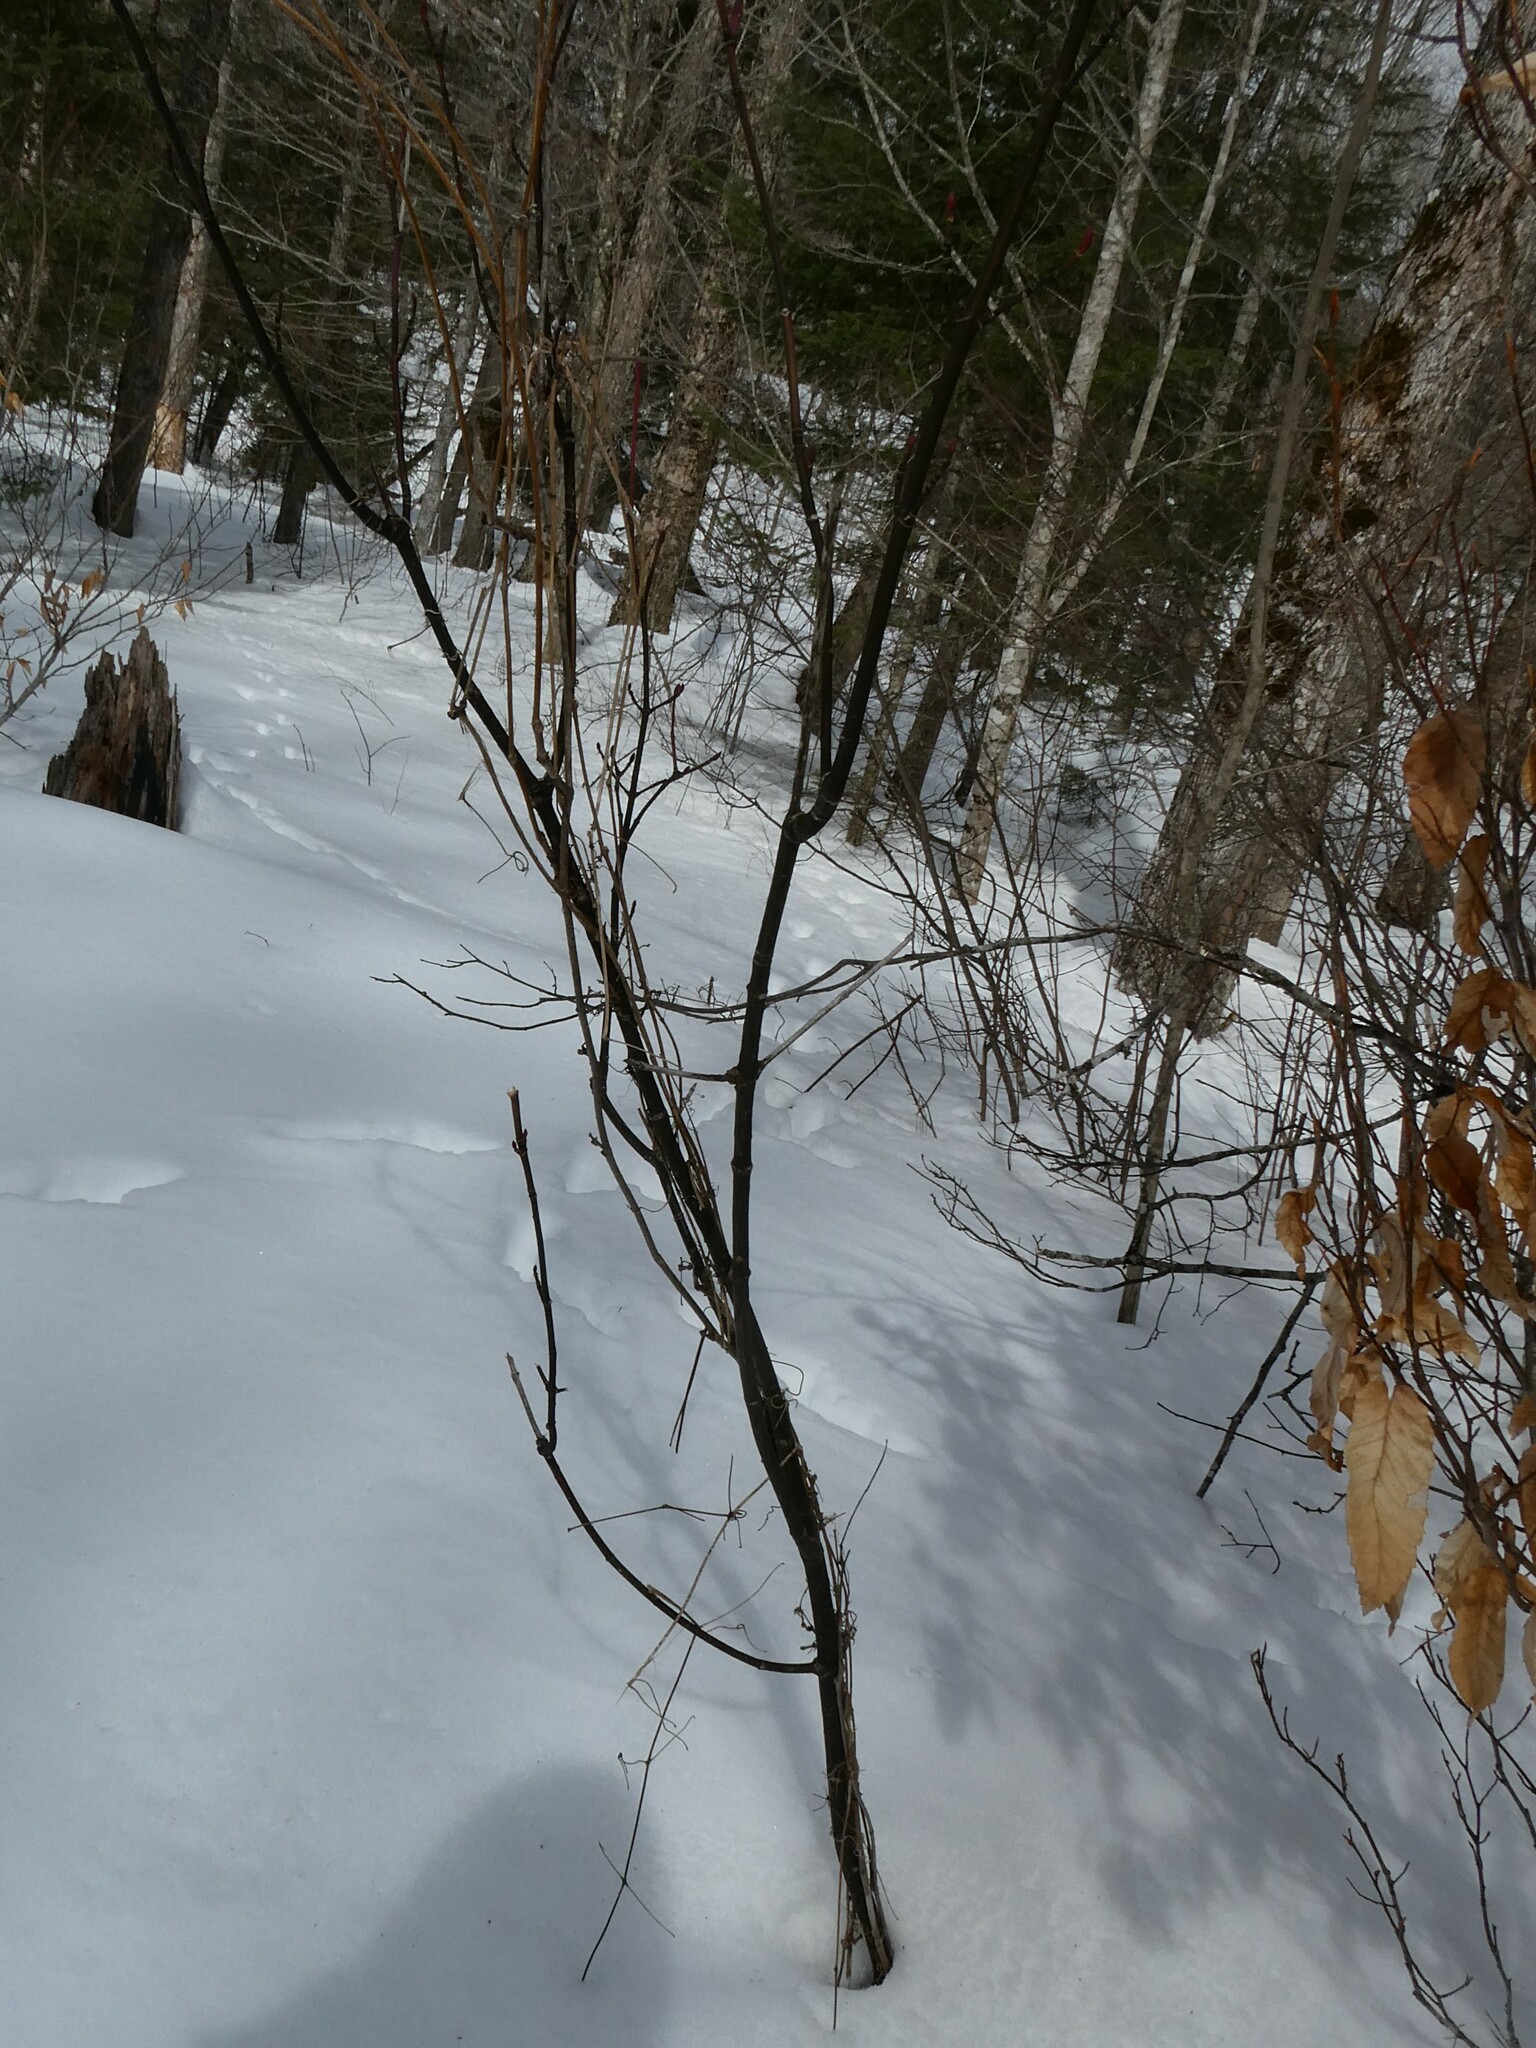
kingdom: Plantae
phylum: Tracheophyta
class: Magnoliopsida
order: Sapindales
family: Sapindaceae
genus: Acer
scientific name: Acer pensylvanicum
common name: Moosewood
